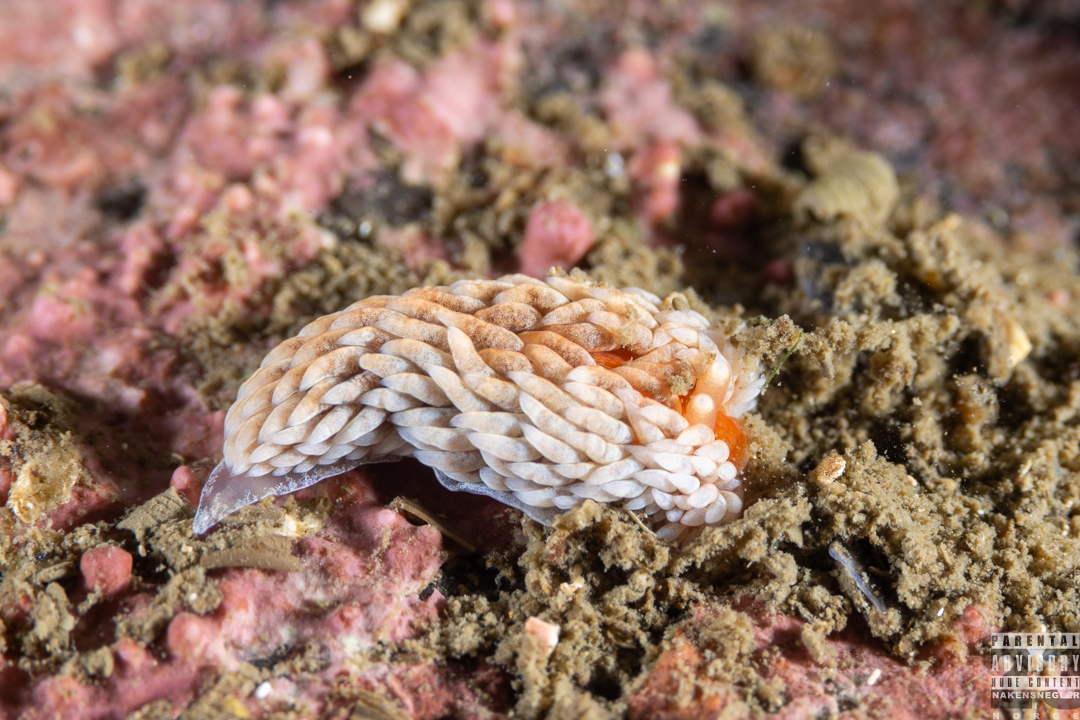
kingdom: Animalia
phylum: Mollusca
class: Gastropoda
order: Nudibranchia
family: Aeolidiidae
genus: Aeolidiella
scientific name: Aeolidiella glauca
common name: Orange-brown aeolid
